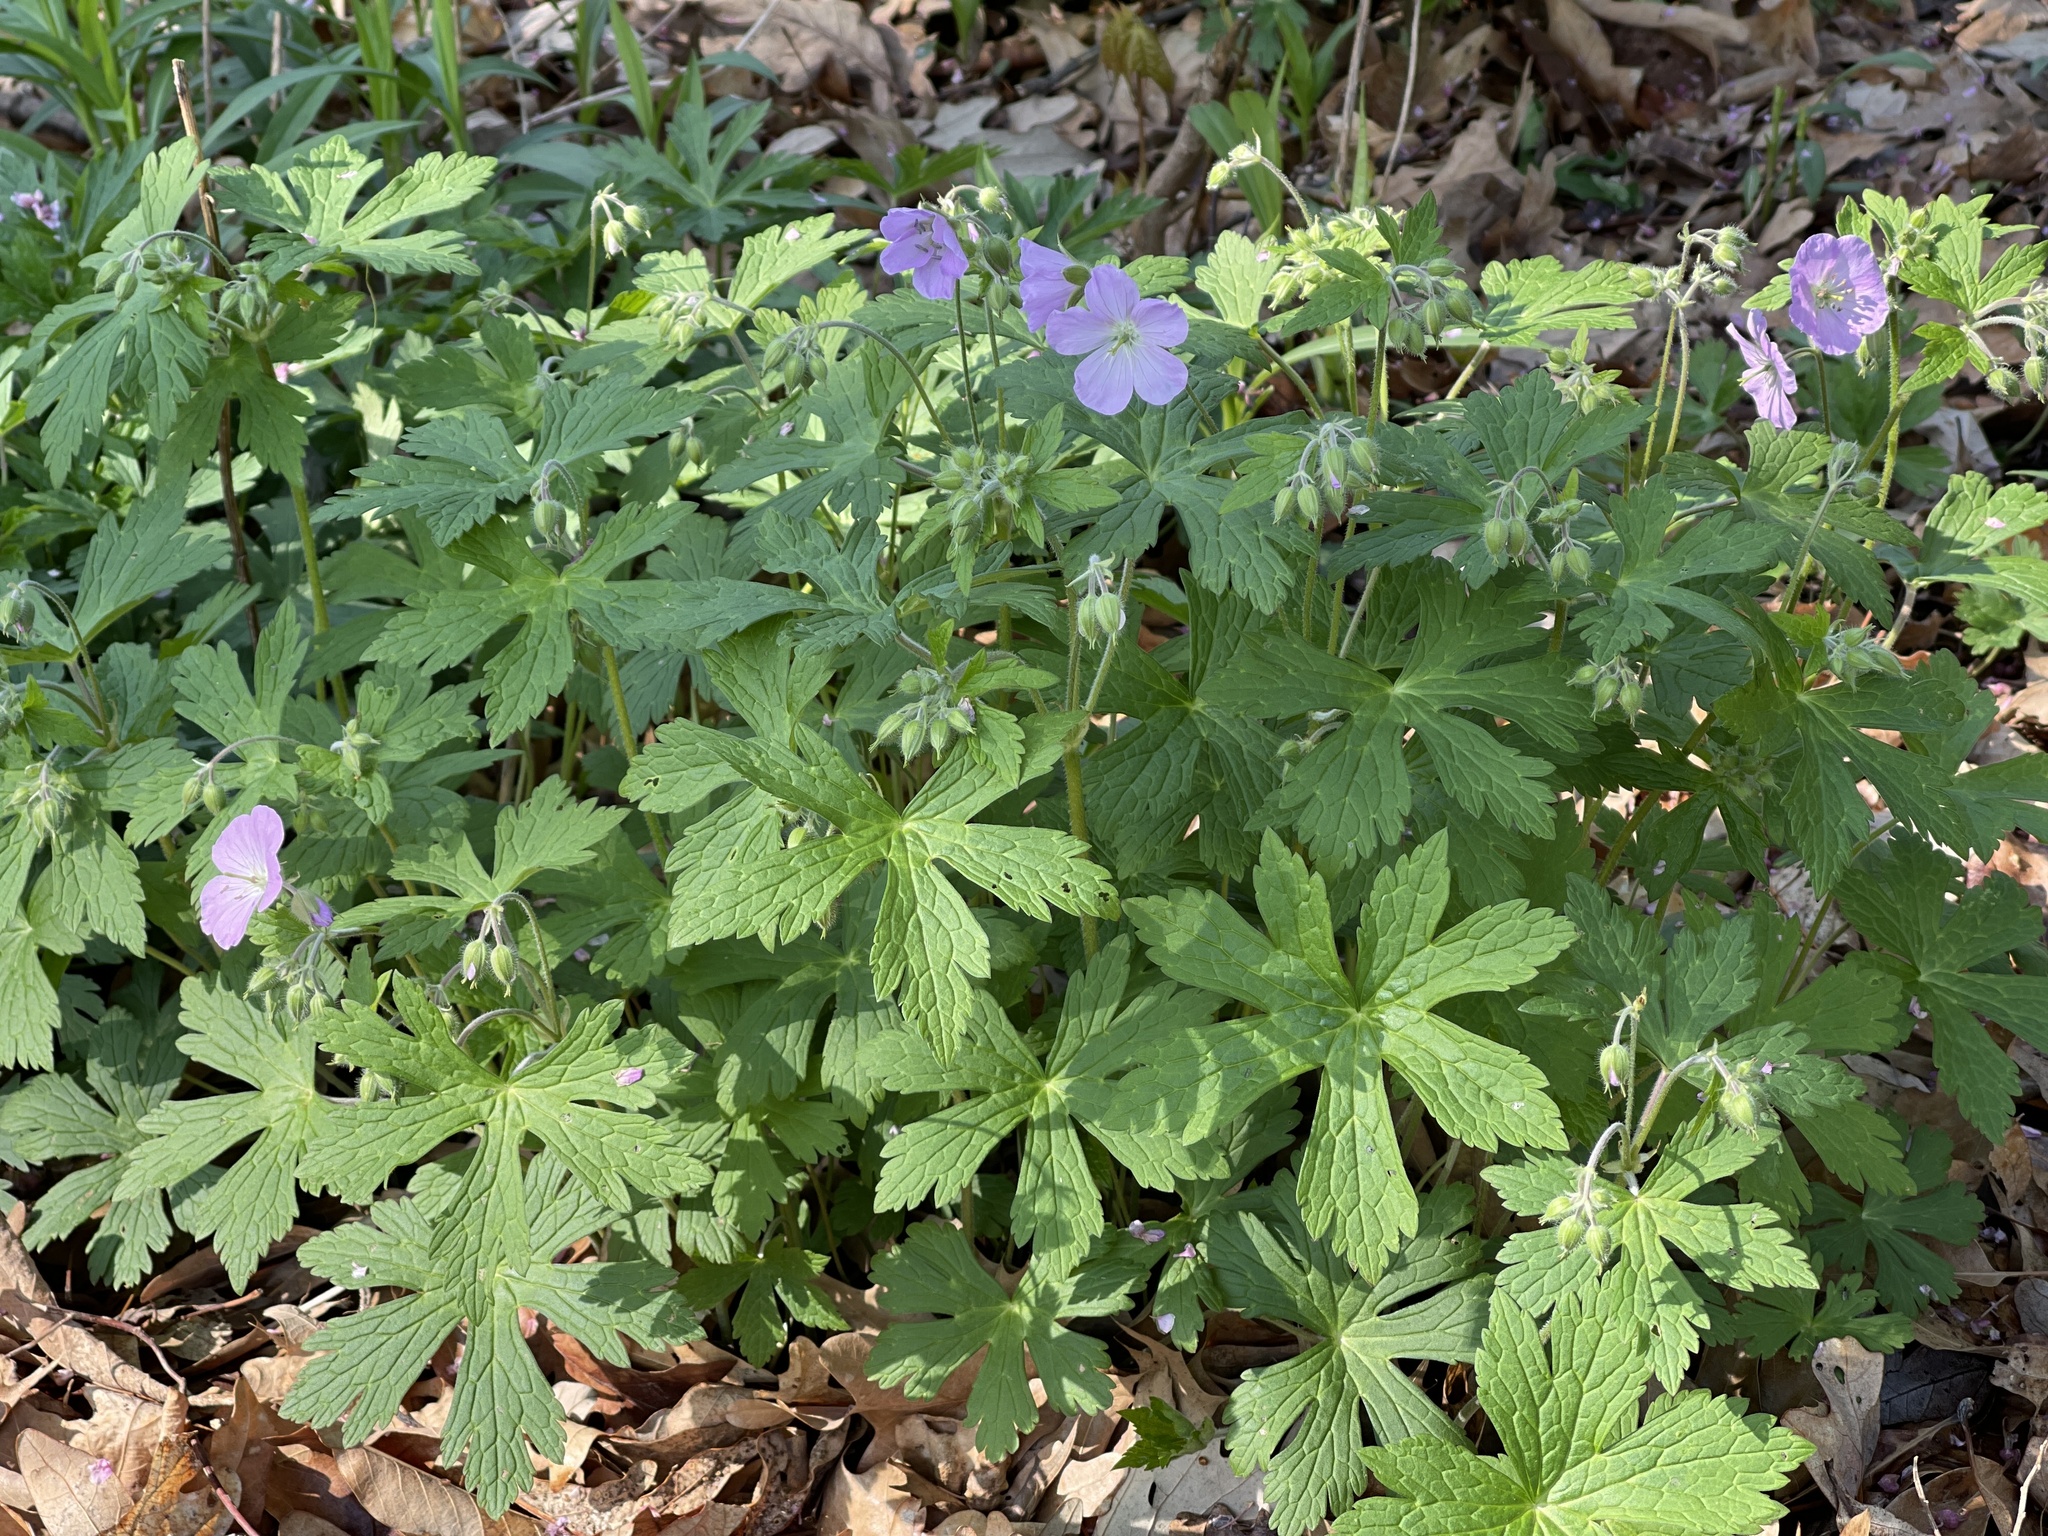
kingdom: Plantae
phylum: Tracheophyta
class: Magnoliopsida
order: Geraniales
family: Geraniaceae
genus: Geranium
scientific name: Geranium maculatum
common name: Spotted geranium
